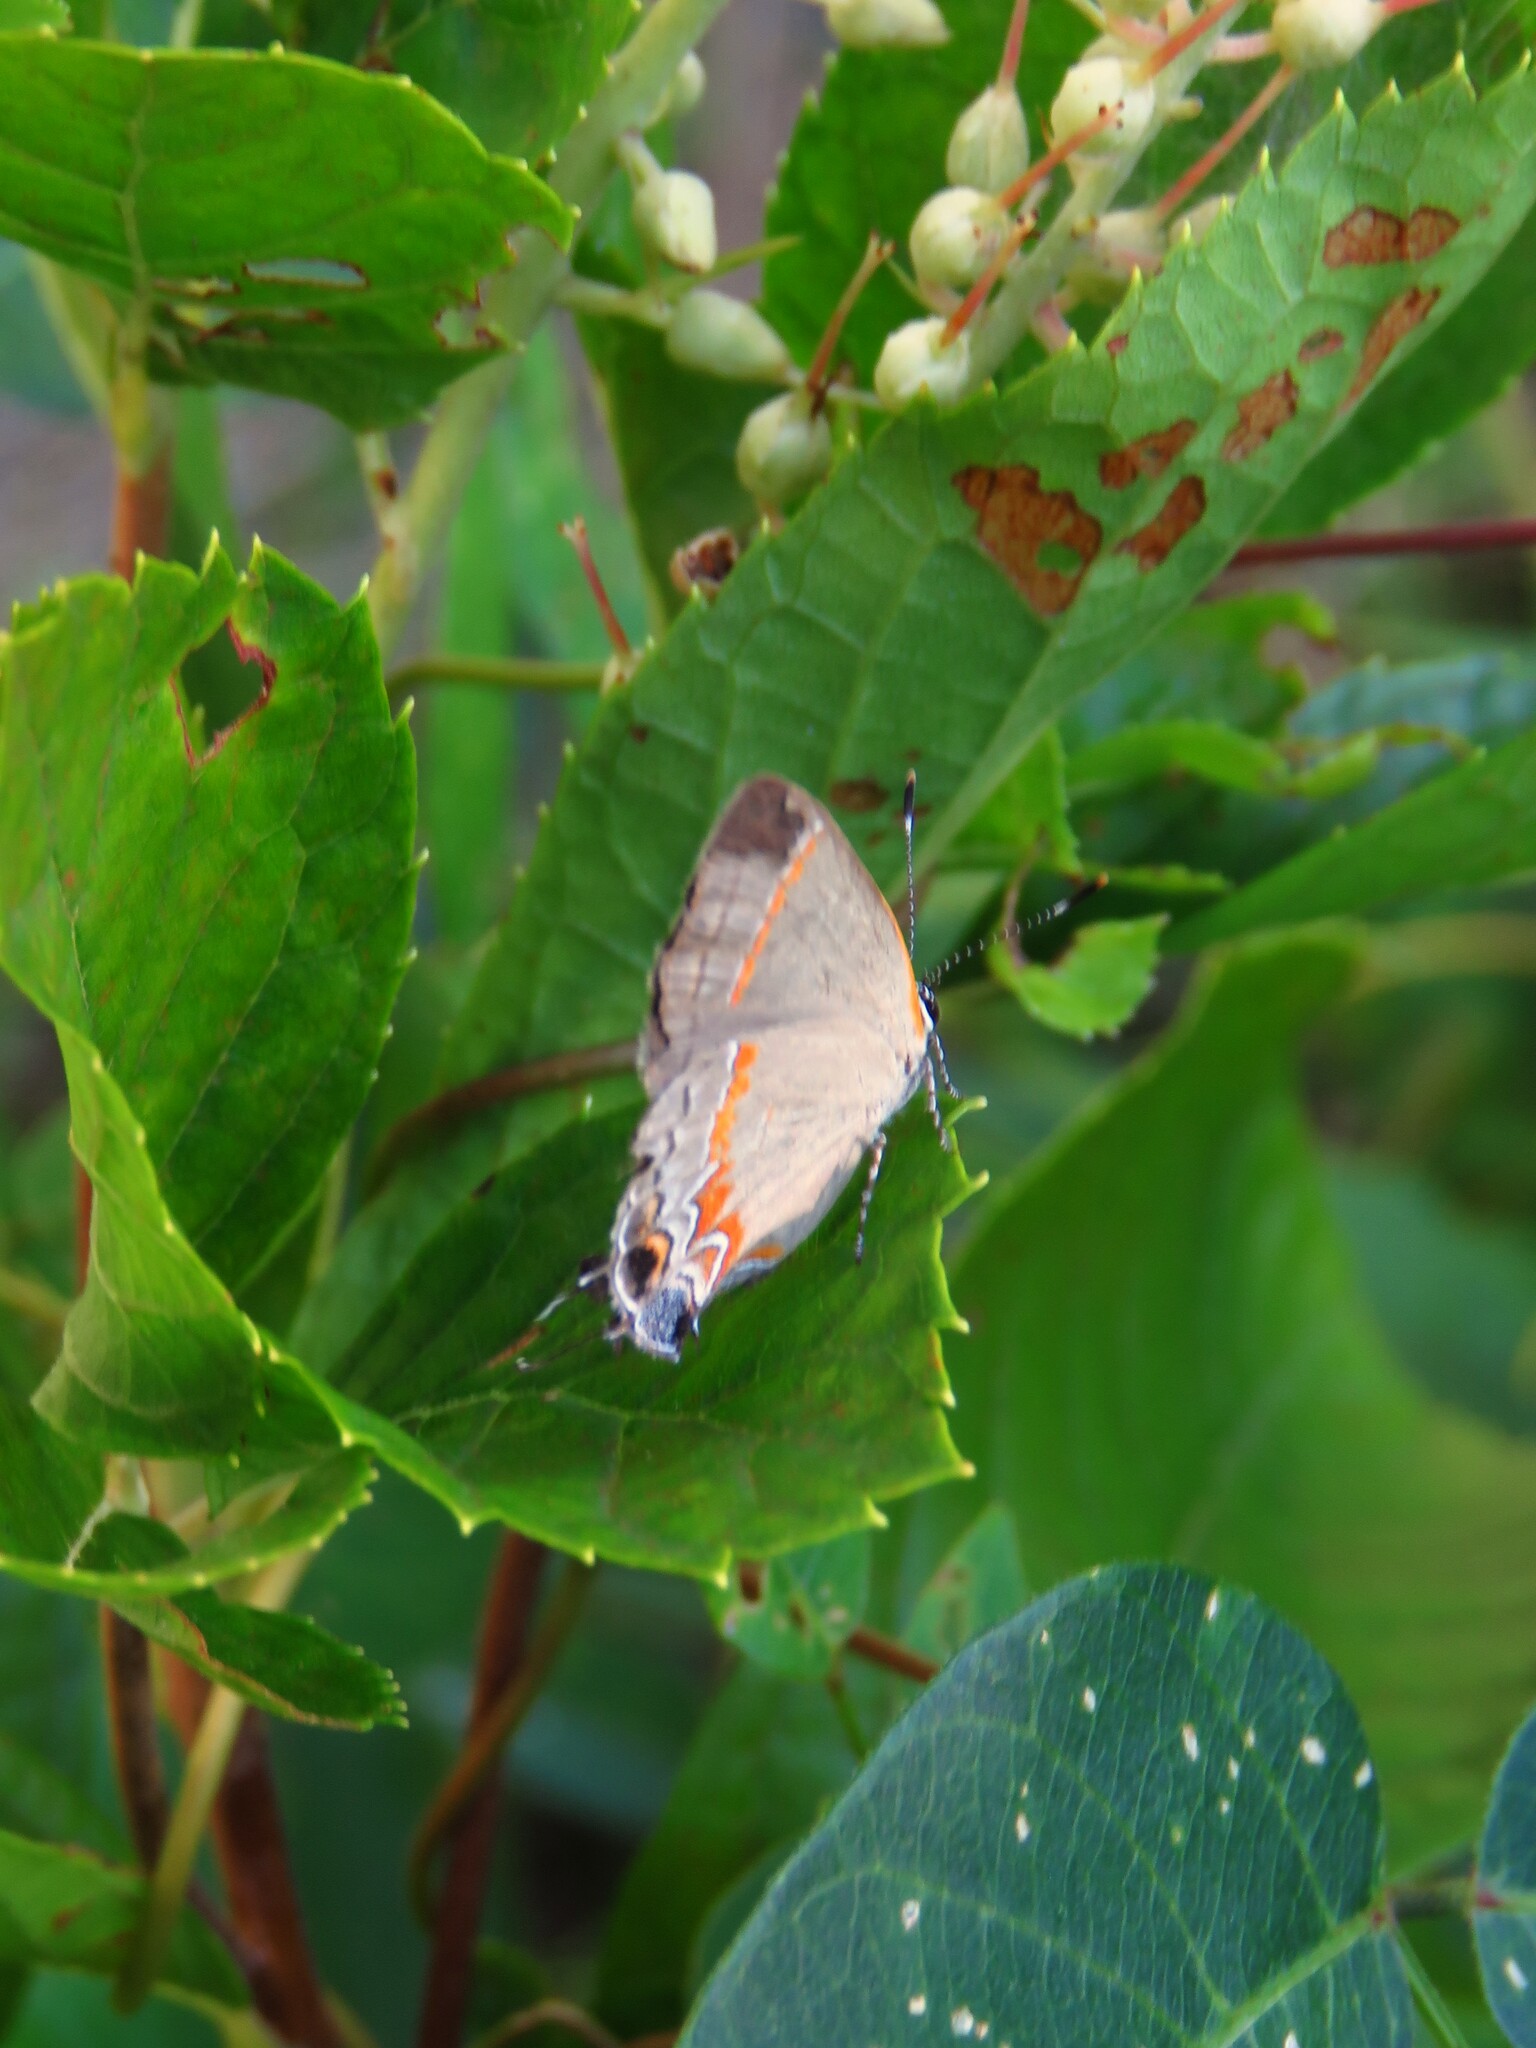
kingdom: Animalia
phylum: Arthropoda
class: Insecta
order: Lepidoptera
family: Lycaenidae
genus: Calycopis
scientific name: Calycopis cecrops
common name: Red-banded hairstreak
